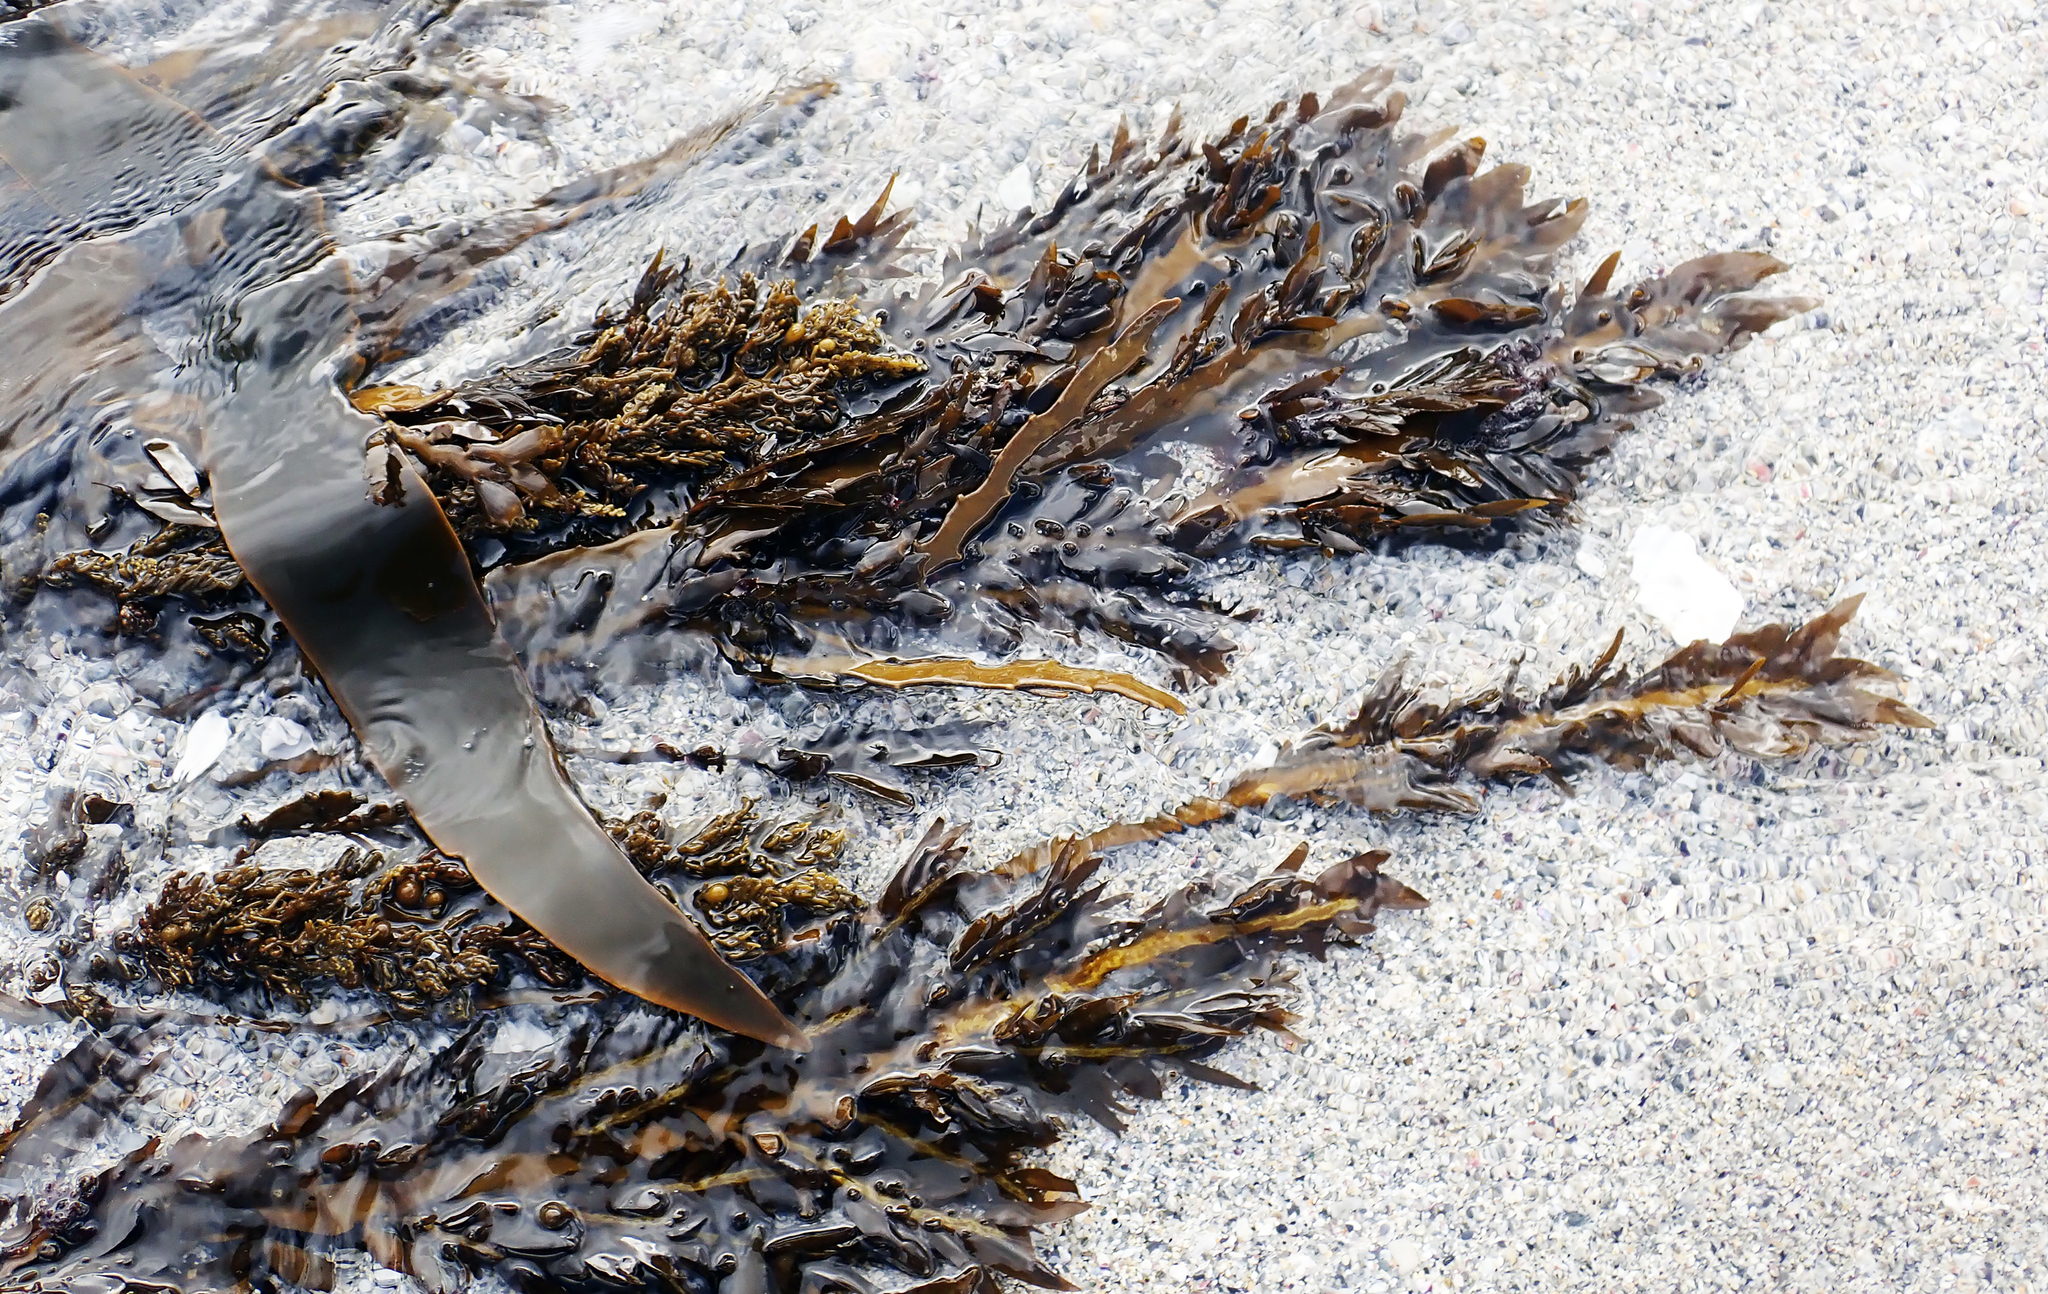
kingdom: Chromista
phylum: Ochrophyta
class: Phaeophyceae
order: Fucales
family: Sargassaceae
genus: Carpophyllum
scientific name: Carpophyllum maschalocarpum
